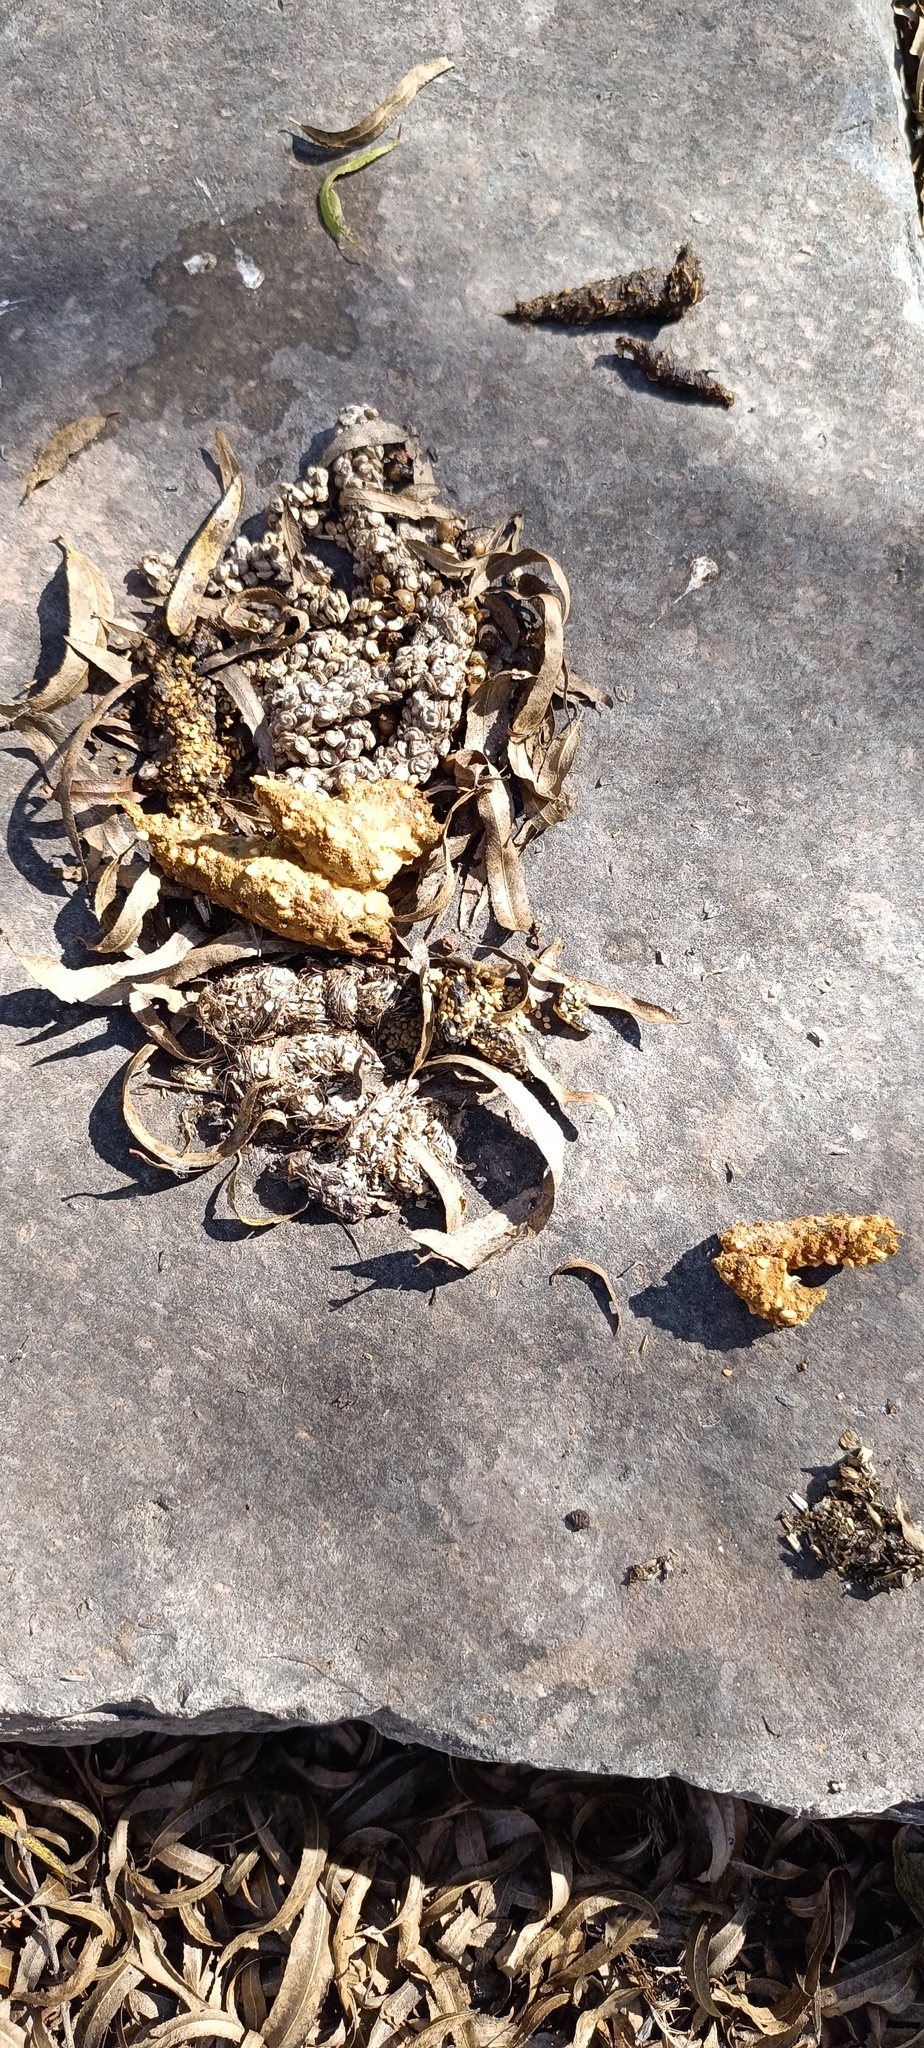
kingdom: Animalia
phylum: Chordata
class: Mammalia
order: Carnivora
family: Procyonidae
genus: Bassariscus
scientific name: Bassariscus astutus
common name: Ringtail
